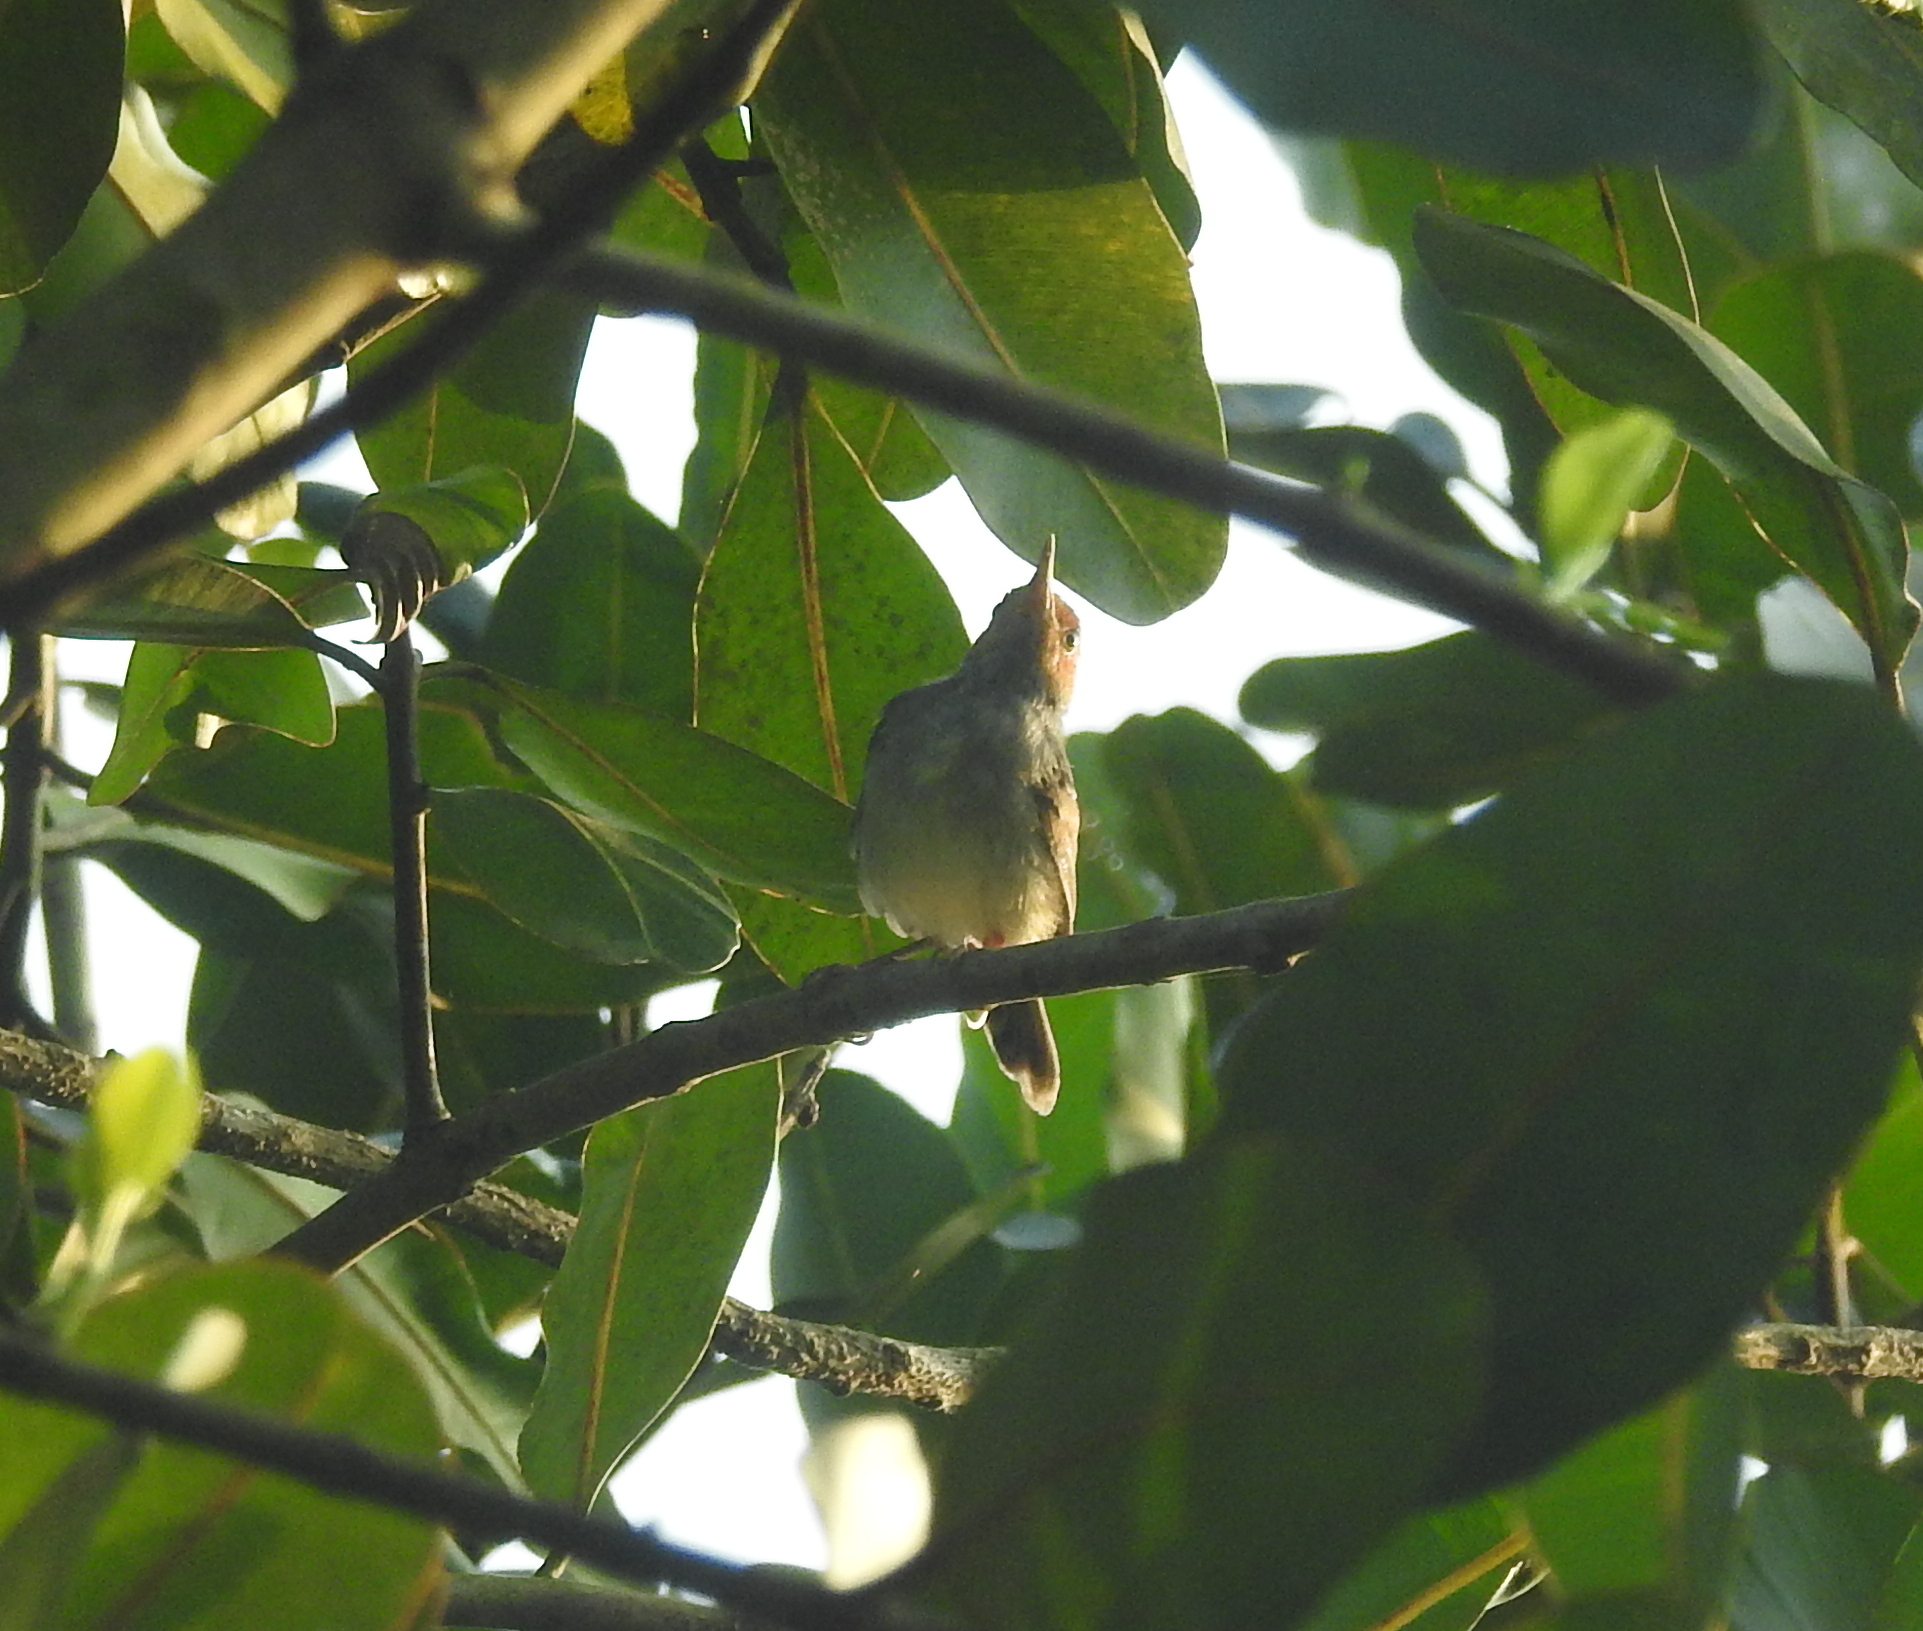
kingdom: Animalia
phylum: Chordata
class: Aves
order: Passeriformes
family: Cisticolidae
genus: Orthotomus
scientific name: Orthotomus ruficeps
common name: Ashy tailorbird
